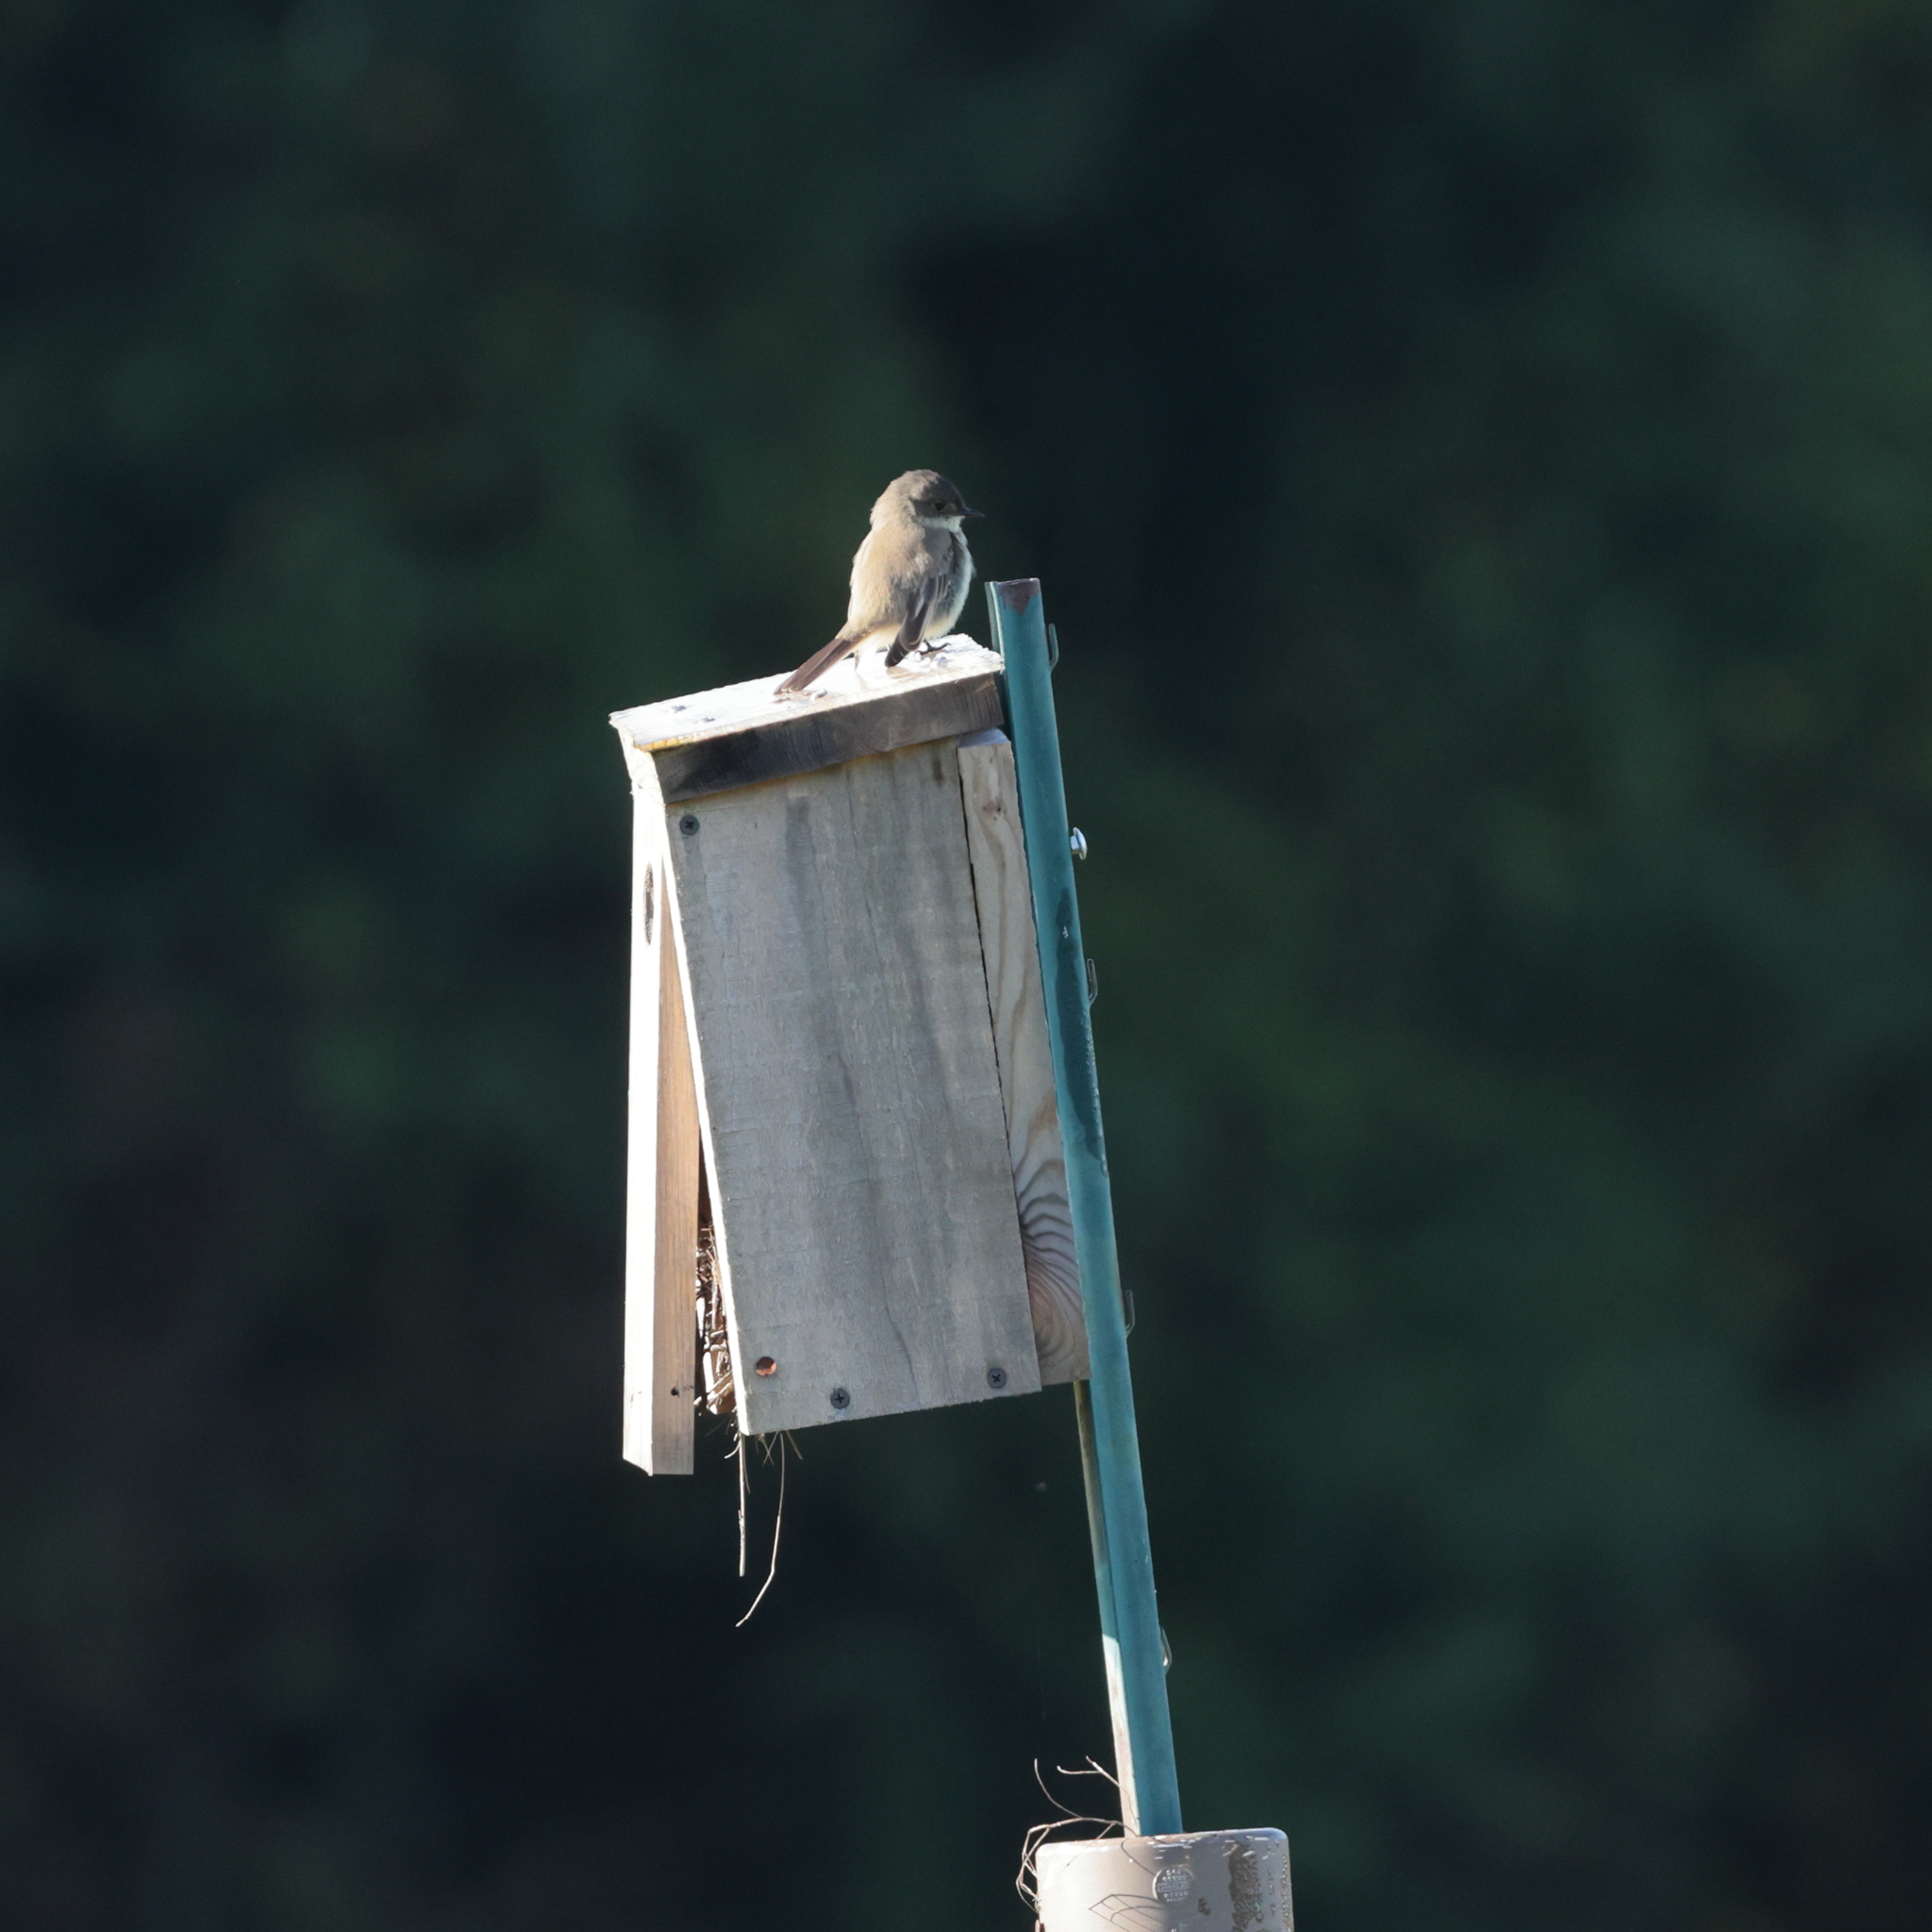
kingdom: Animalia
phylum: Chordata
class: Aves
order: Passeriformes
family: Tyrannidae
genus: Sayornis
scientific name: Sayornis phoebe
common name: Eastern phoebe
